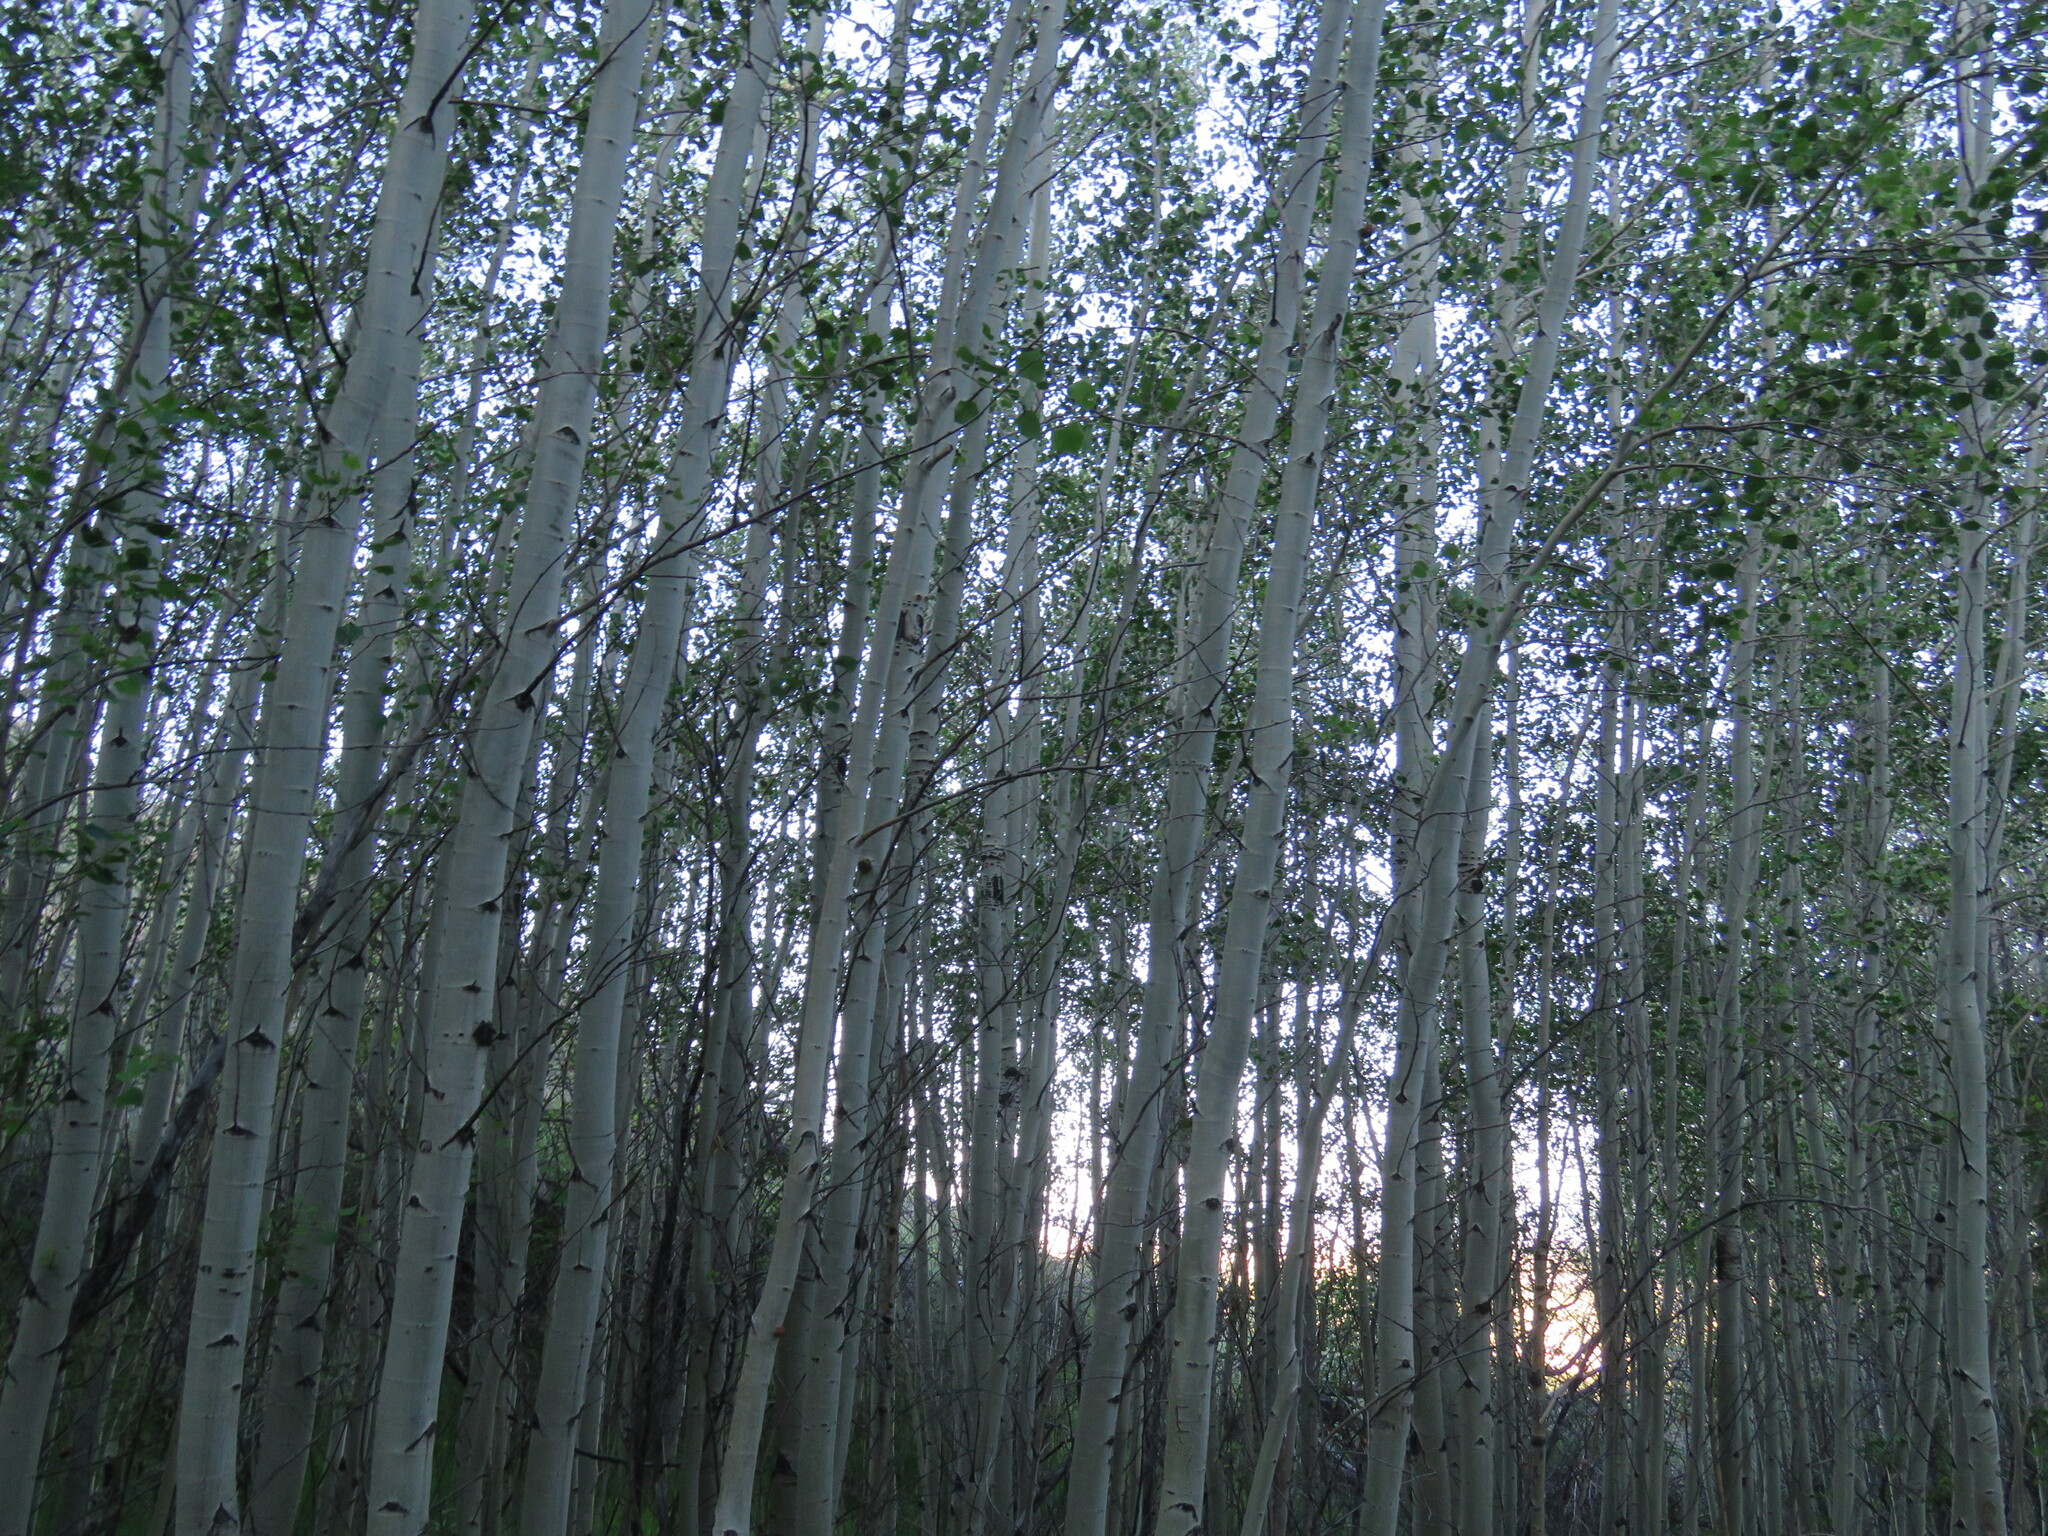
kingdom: Plantae
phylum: Tracheophyta
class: Magnoliopsida
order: Malpighiales
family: Salicaceae
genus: Populus
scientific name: Populus tremuloides
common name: Quaking aspen
